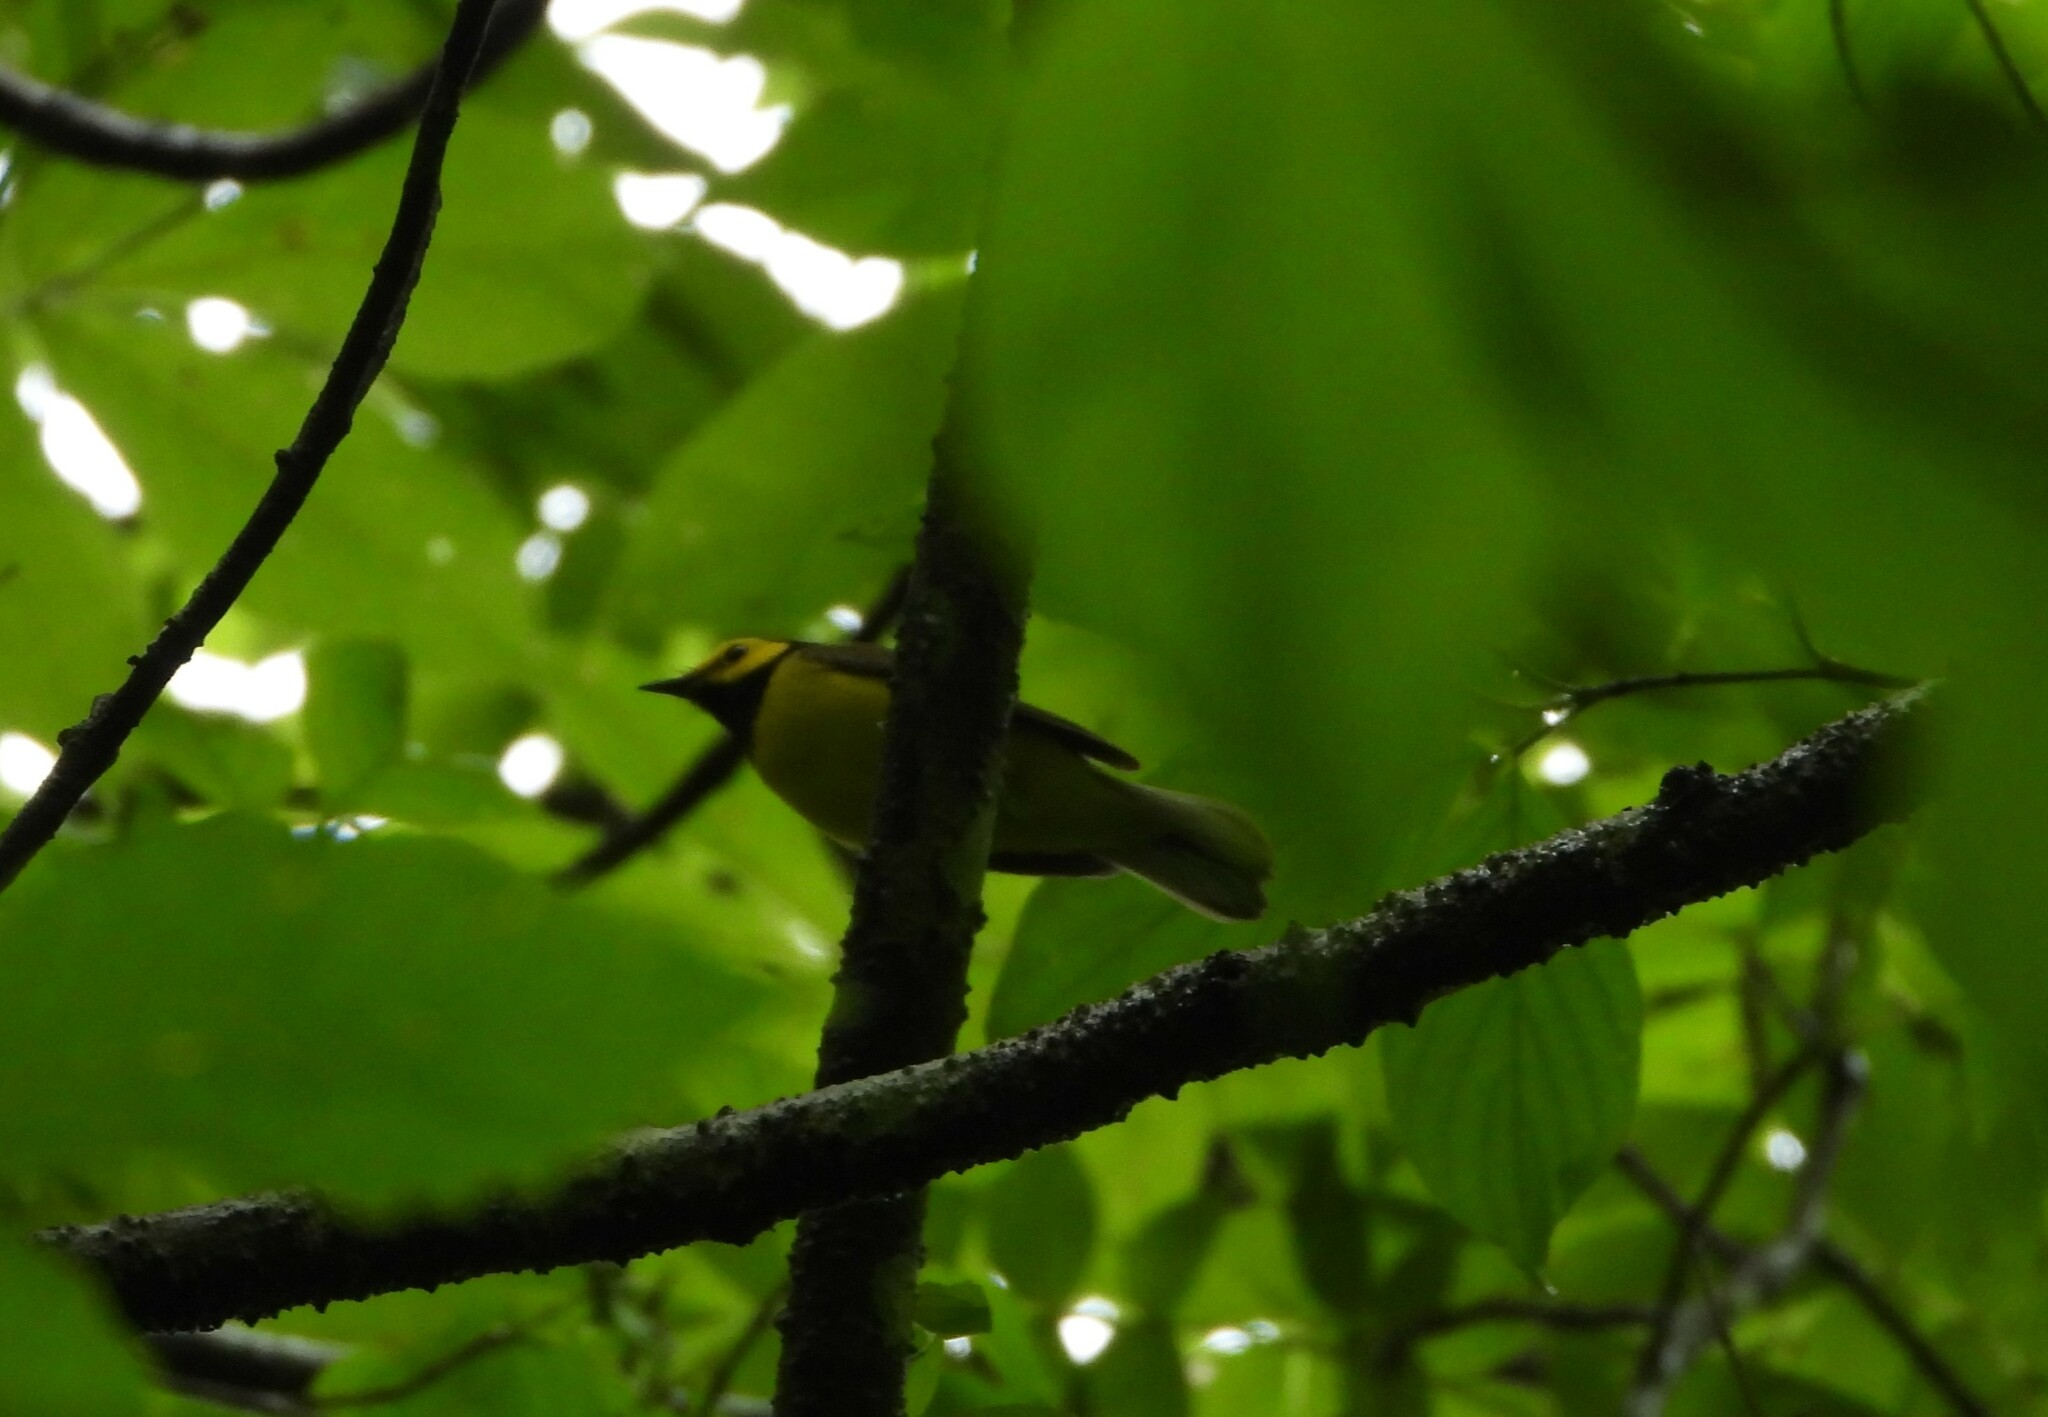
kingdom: Animalia
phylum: Chordata
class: Aves
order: Passeriformes
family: Parulidae
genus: Setophaga
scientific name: Setophaga citrina
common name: Hooded warbler
